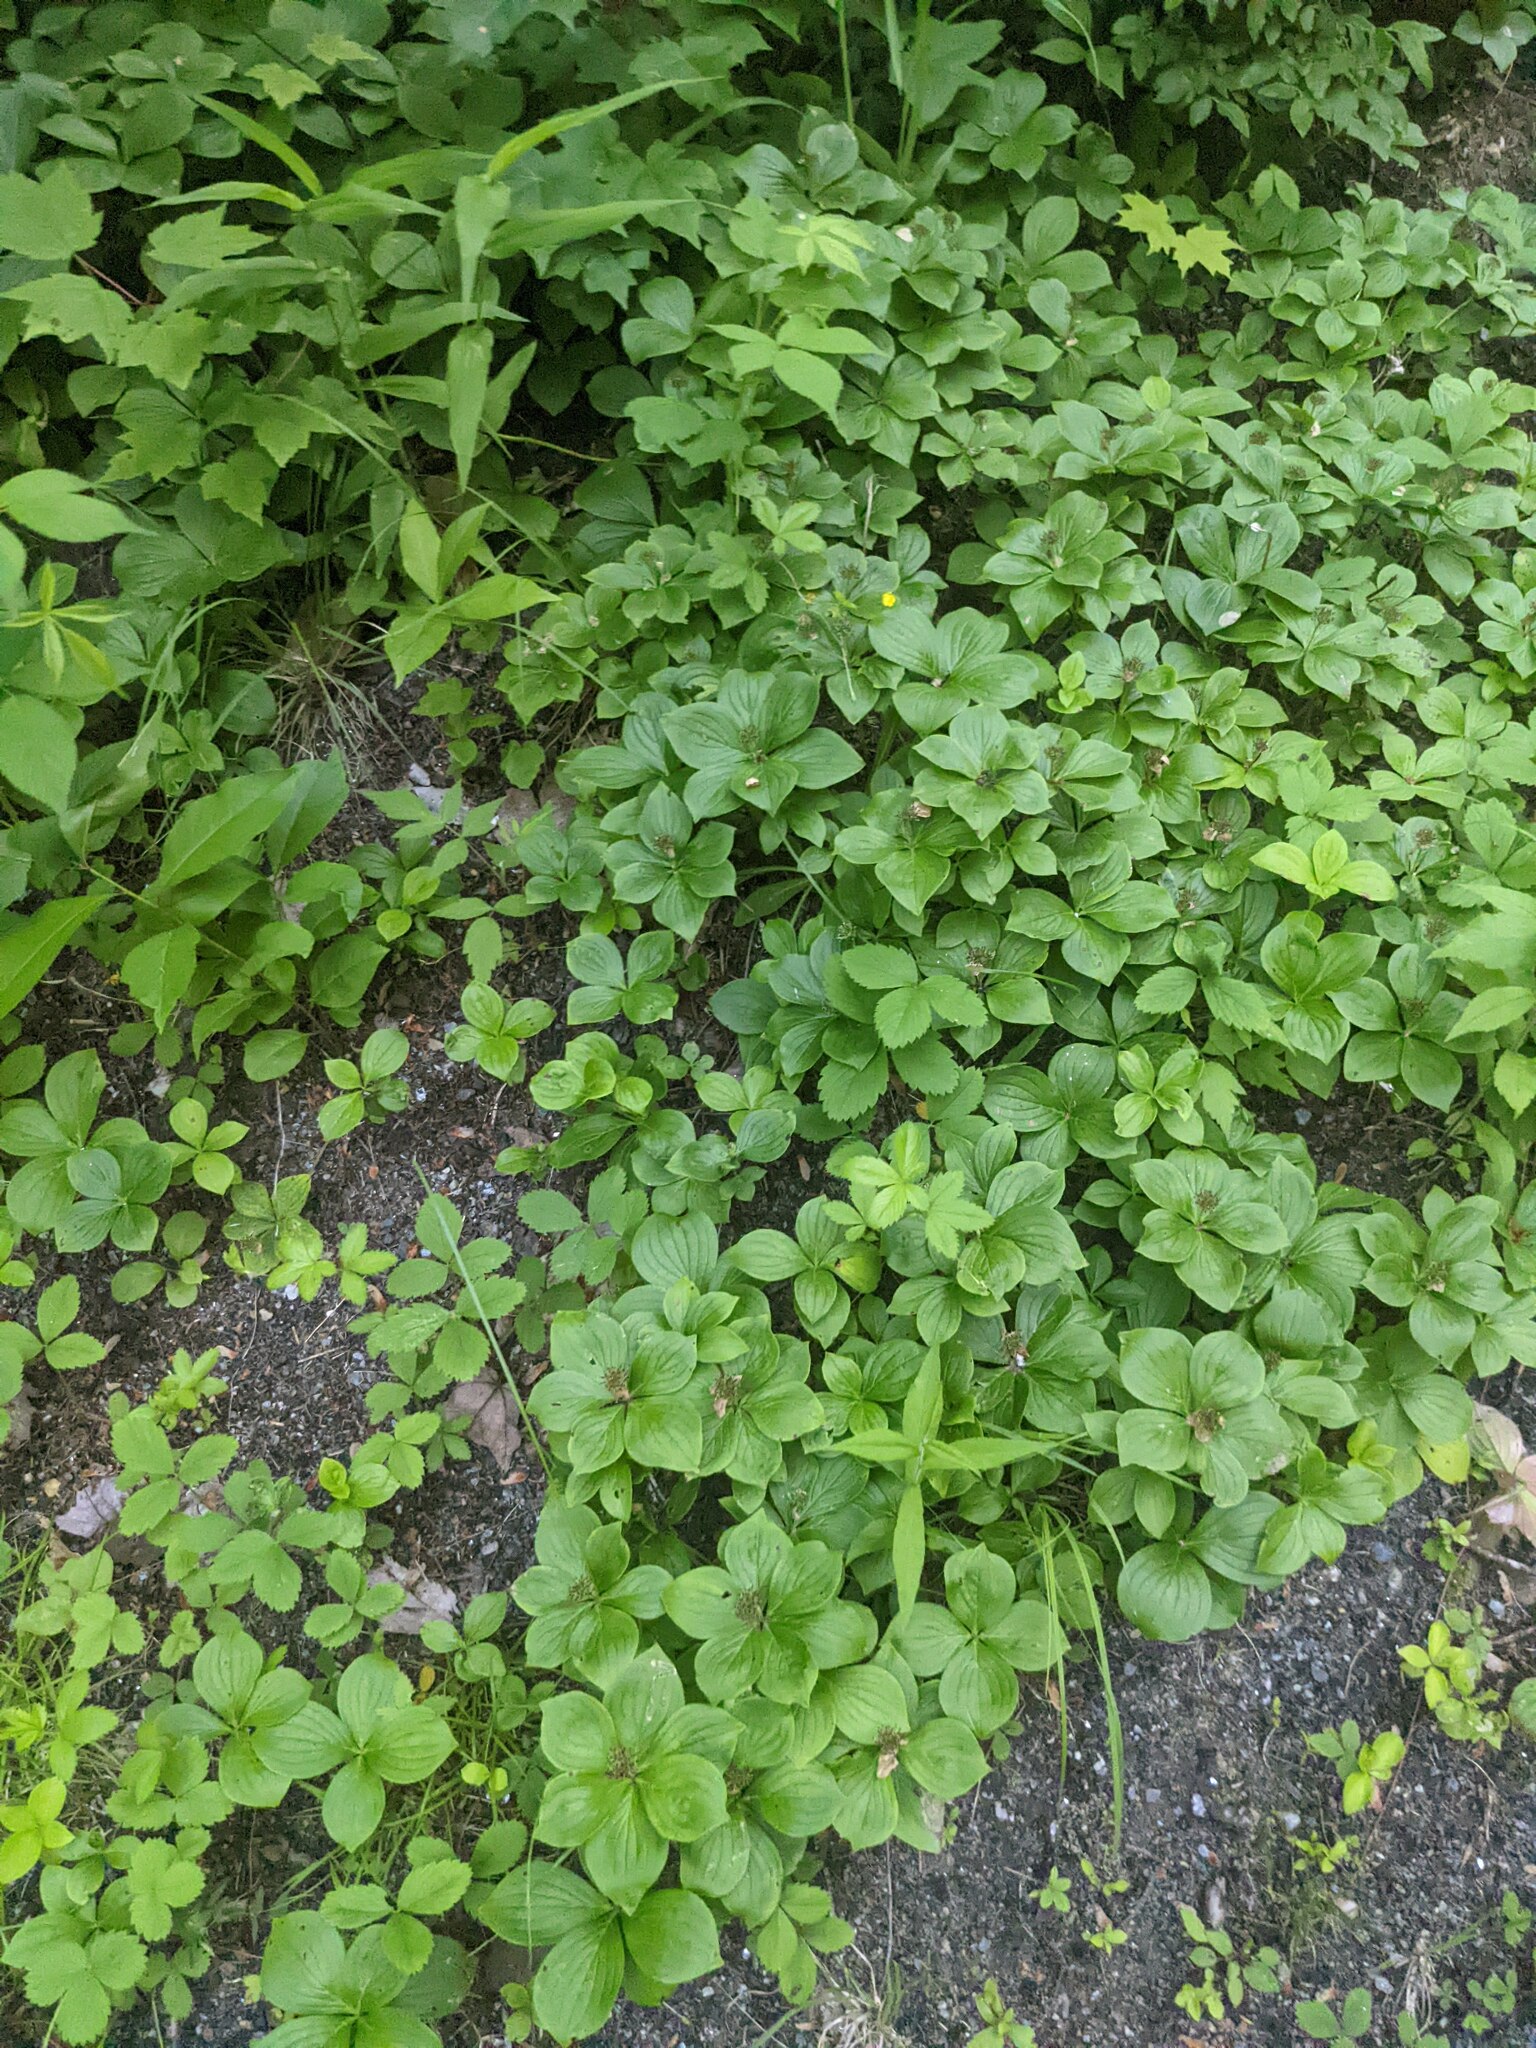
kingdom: Plantae
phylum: Tracheophyta
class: Magnoliopsida
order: Cornales
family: Cornaceae
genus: Cornus
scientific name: Cornus canadensis
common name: Creeping dogwood
